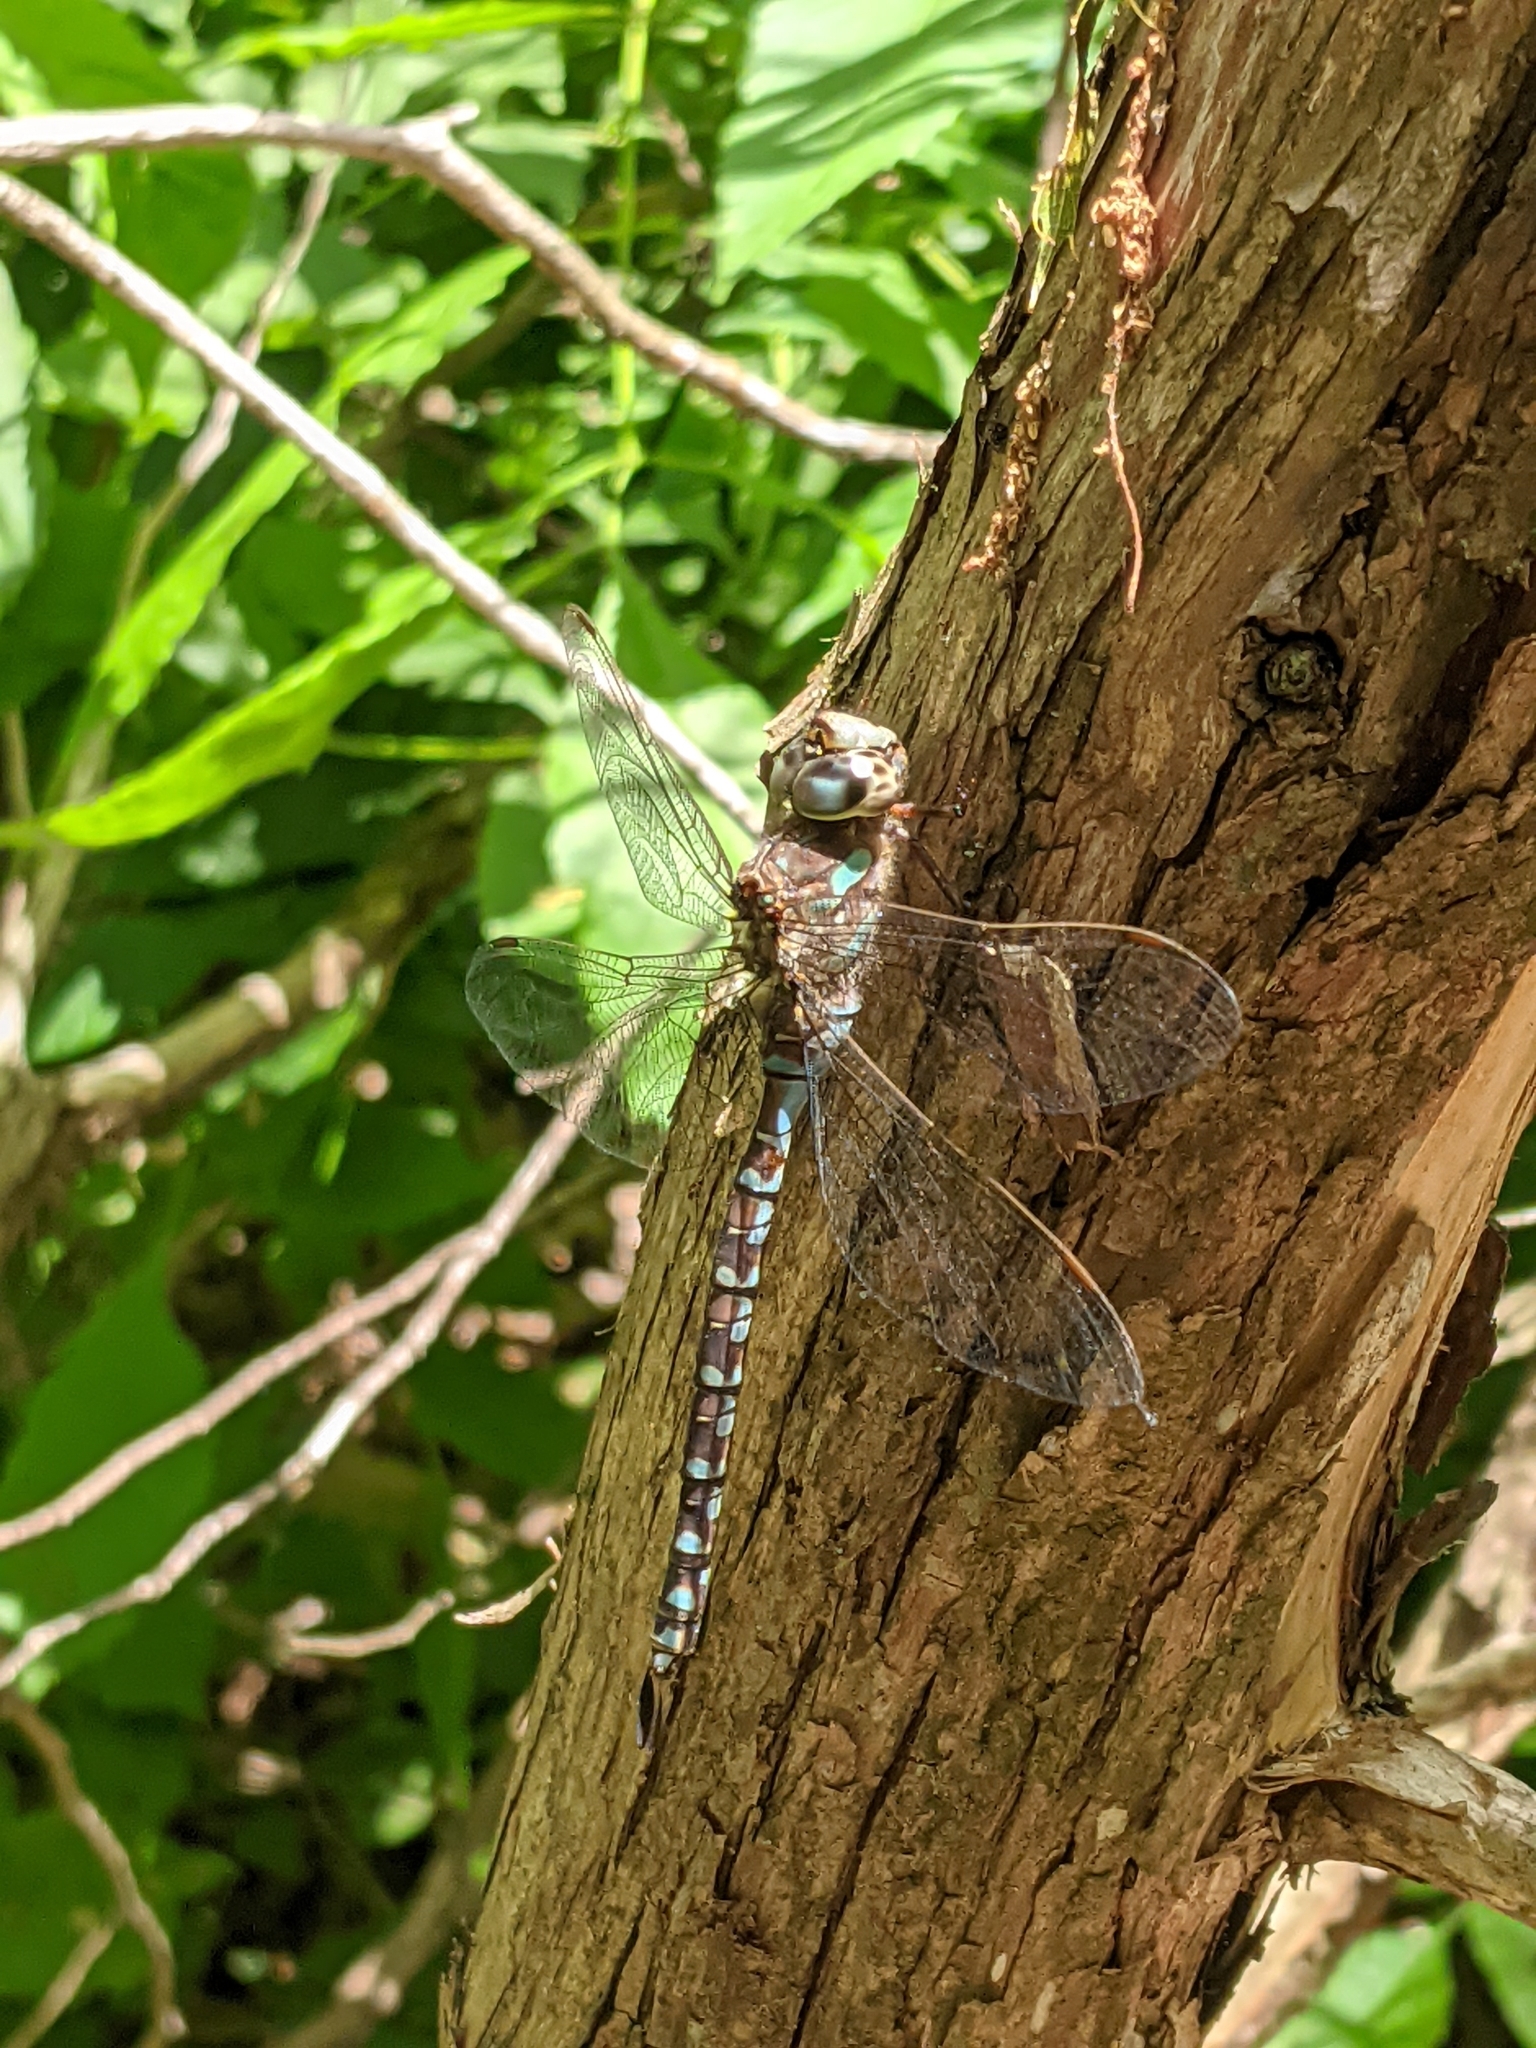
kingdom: Animalia
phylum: Arthropoda
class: Insecta
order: Odonata
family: Aeshnidae
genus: Aeshna
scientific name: Aeshna canadensis
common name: Canada darner
